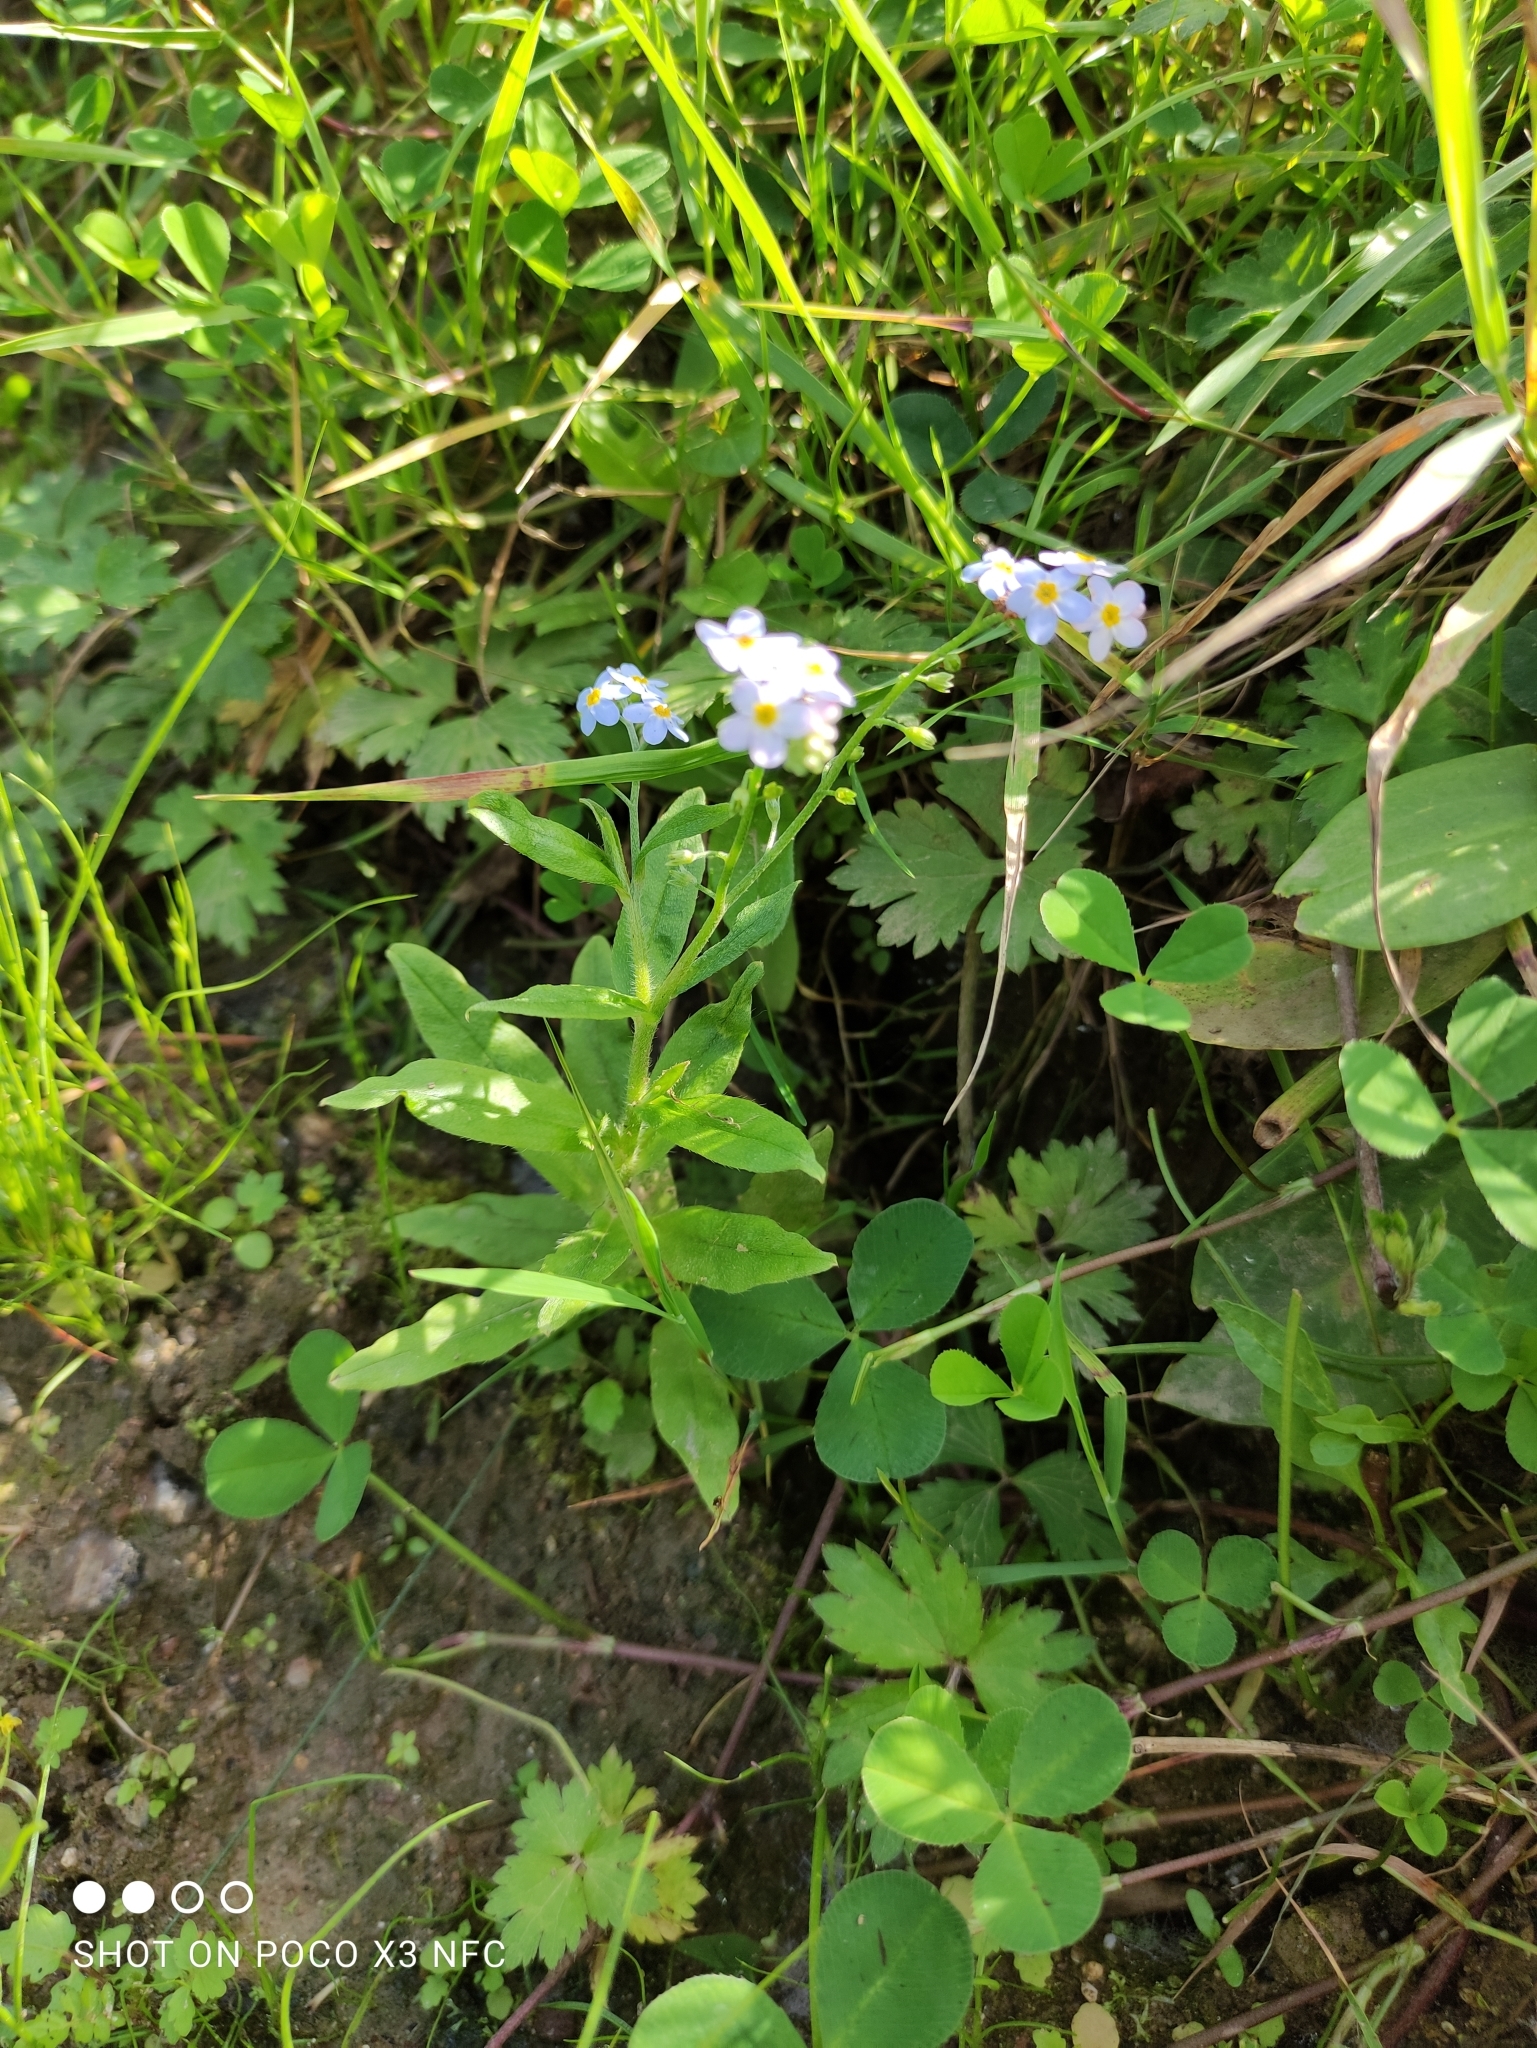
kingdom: Plantae
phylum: Tracheophyta
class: Magnoliopsida
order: Boraginales
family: Boraginaceae
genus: Myosotis
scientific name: Myosotis scorpioides
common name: Water forget-me-not
